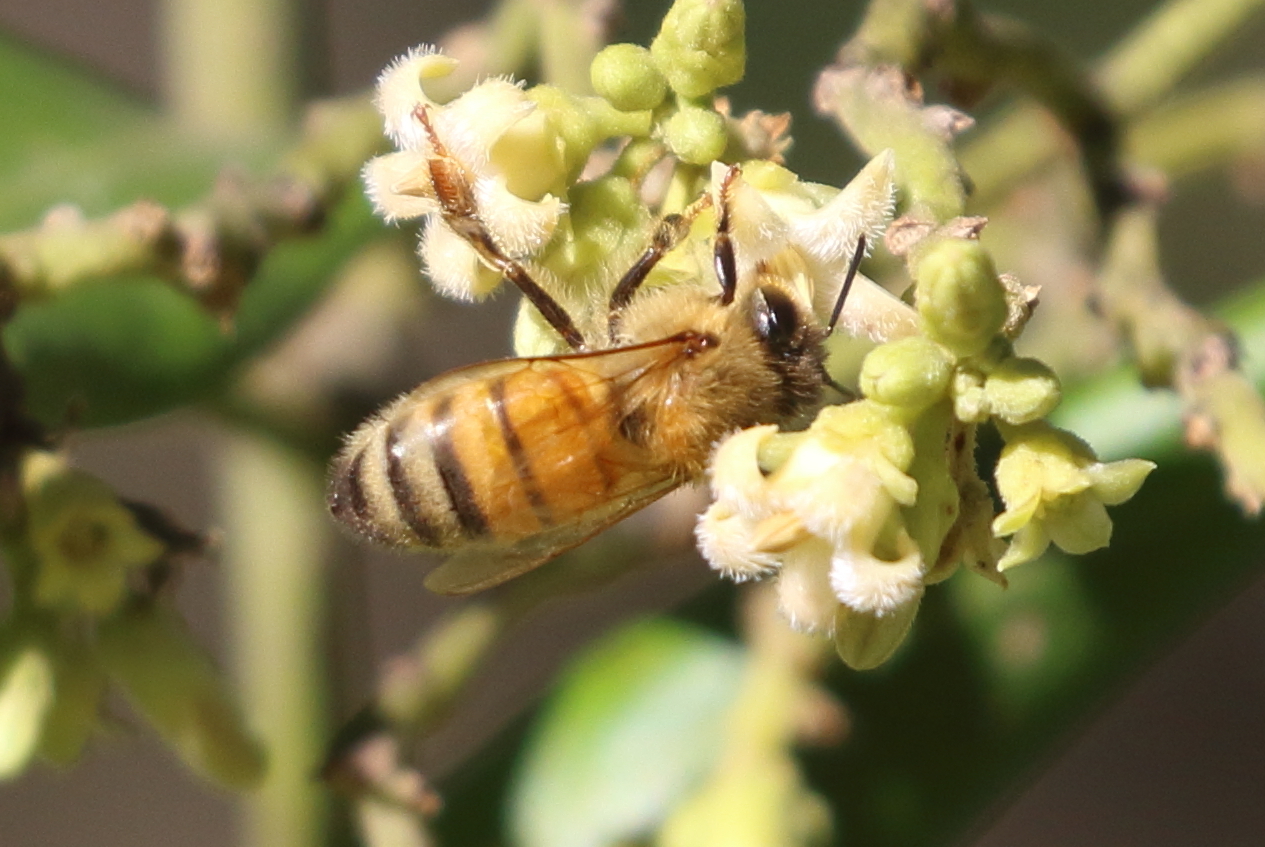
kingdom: Animalia
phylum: Arthropoda
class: Insecta
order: Hymenoptera
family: Apidae
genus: Apis
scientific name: Apis mellifera
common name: Honey bee
